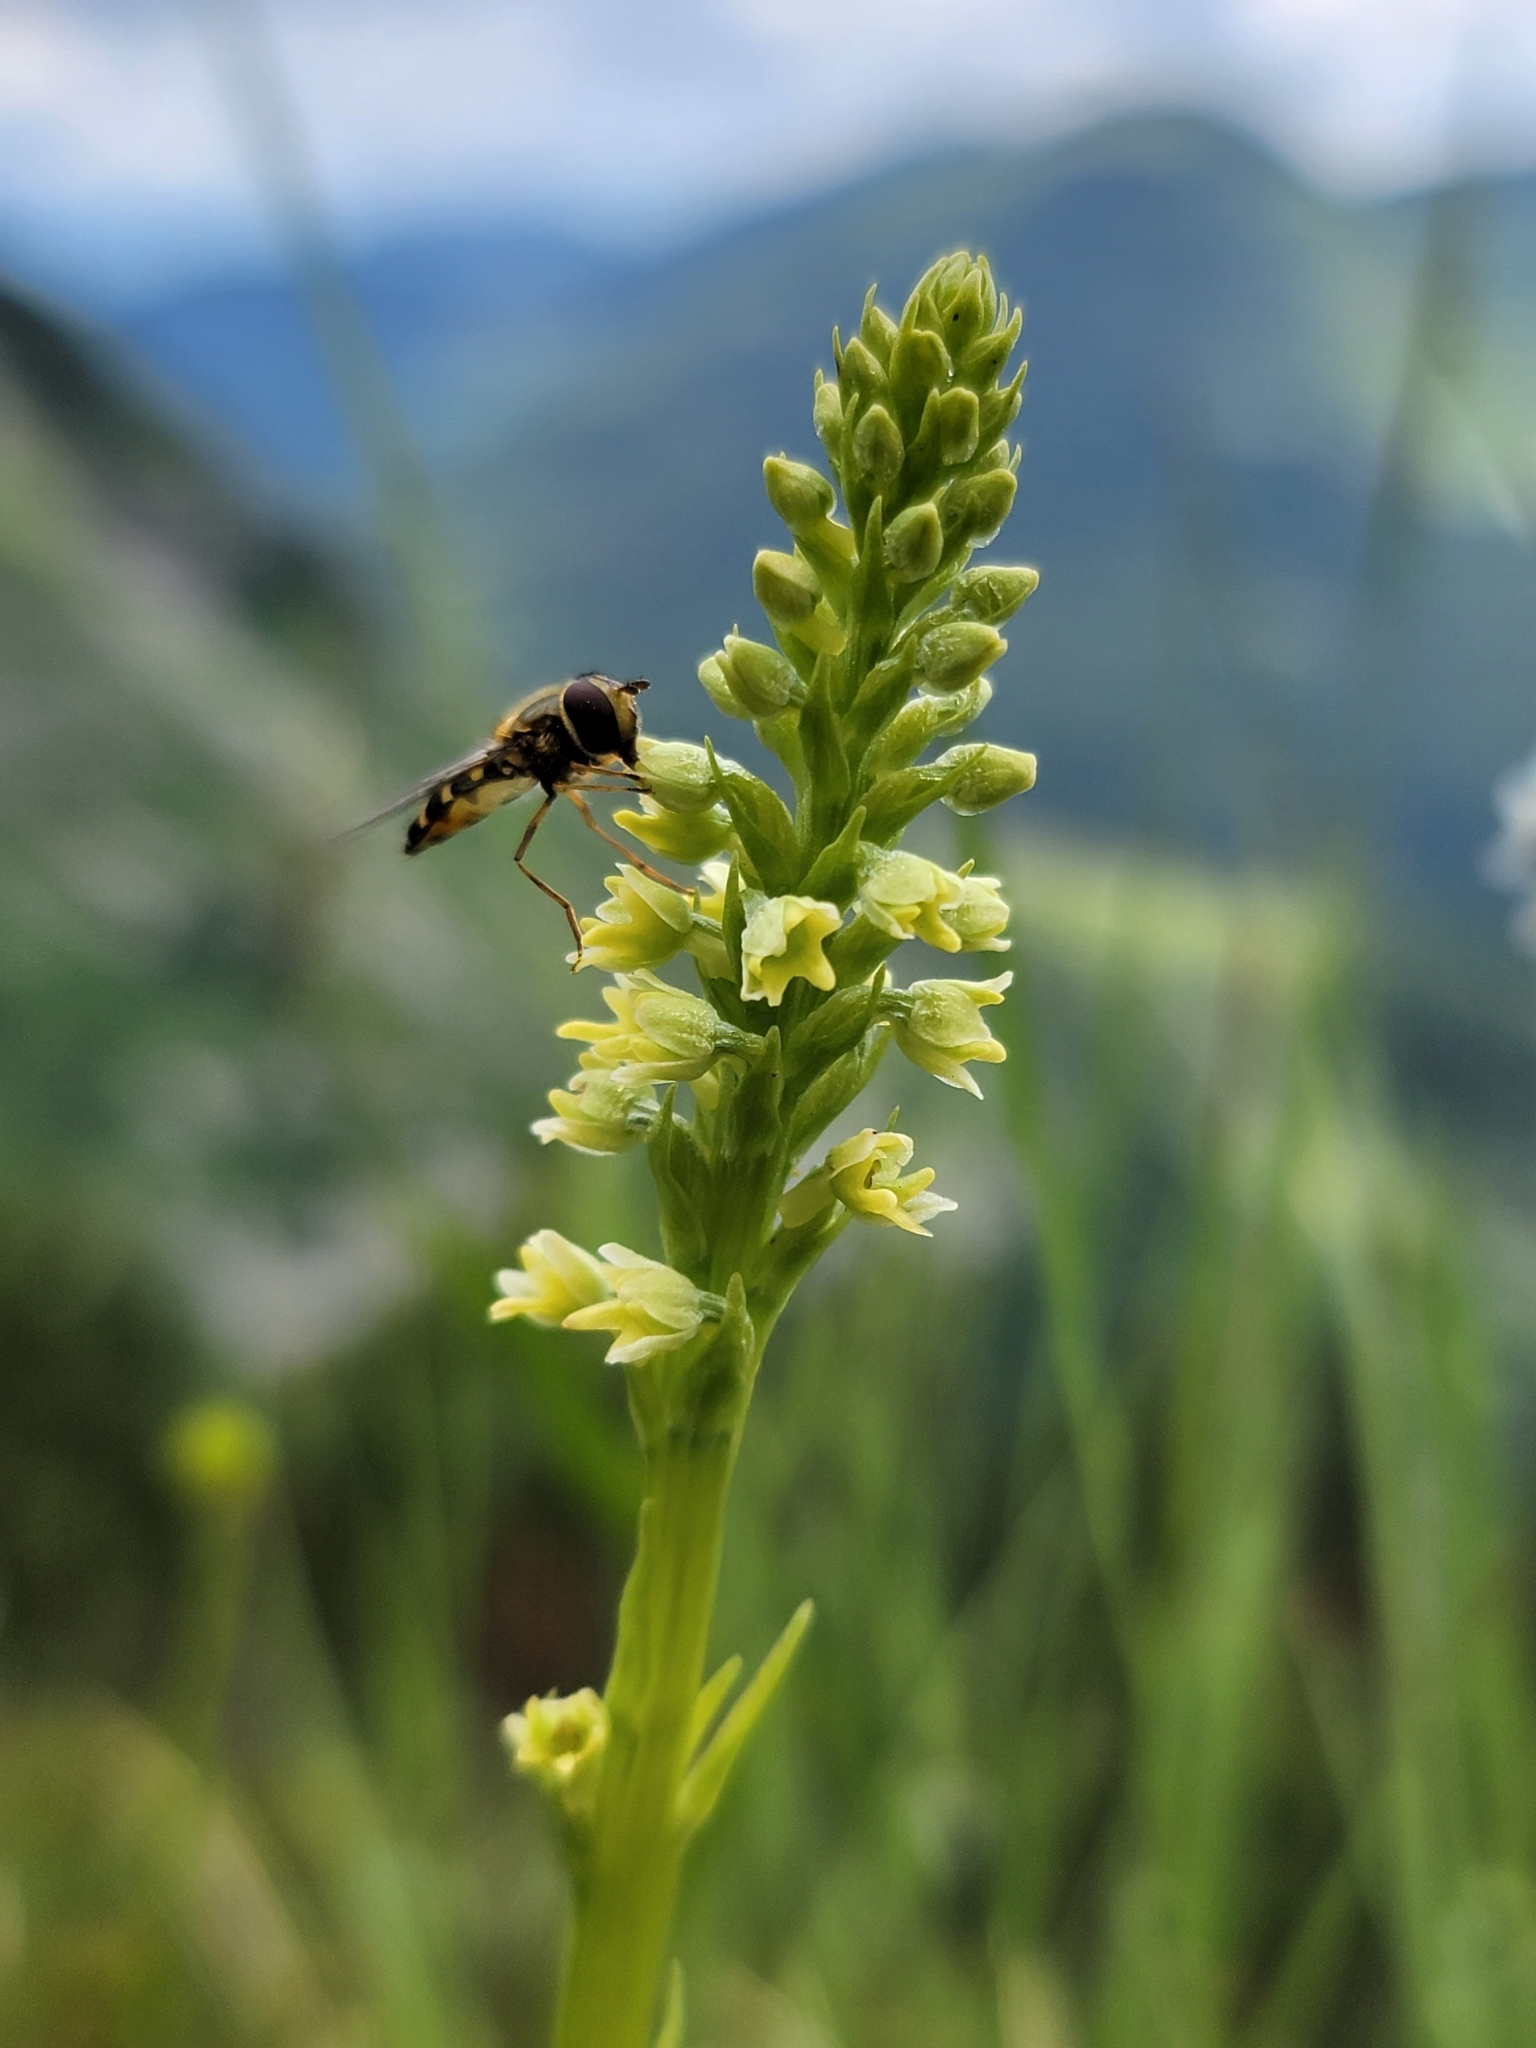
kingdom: Plantae
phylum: Tracheophyta
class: Liliopsida
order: Asparagales
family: Orchidaceae
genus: Pseudorchis
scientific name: Pseudorchis albida
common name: Small-white orchid
